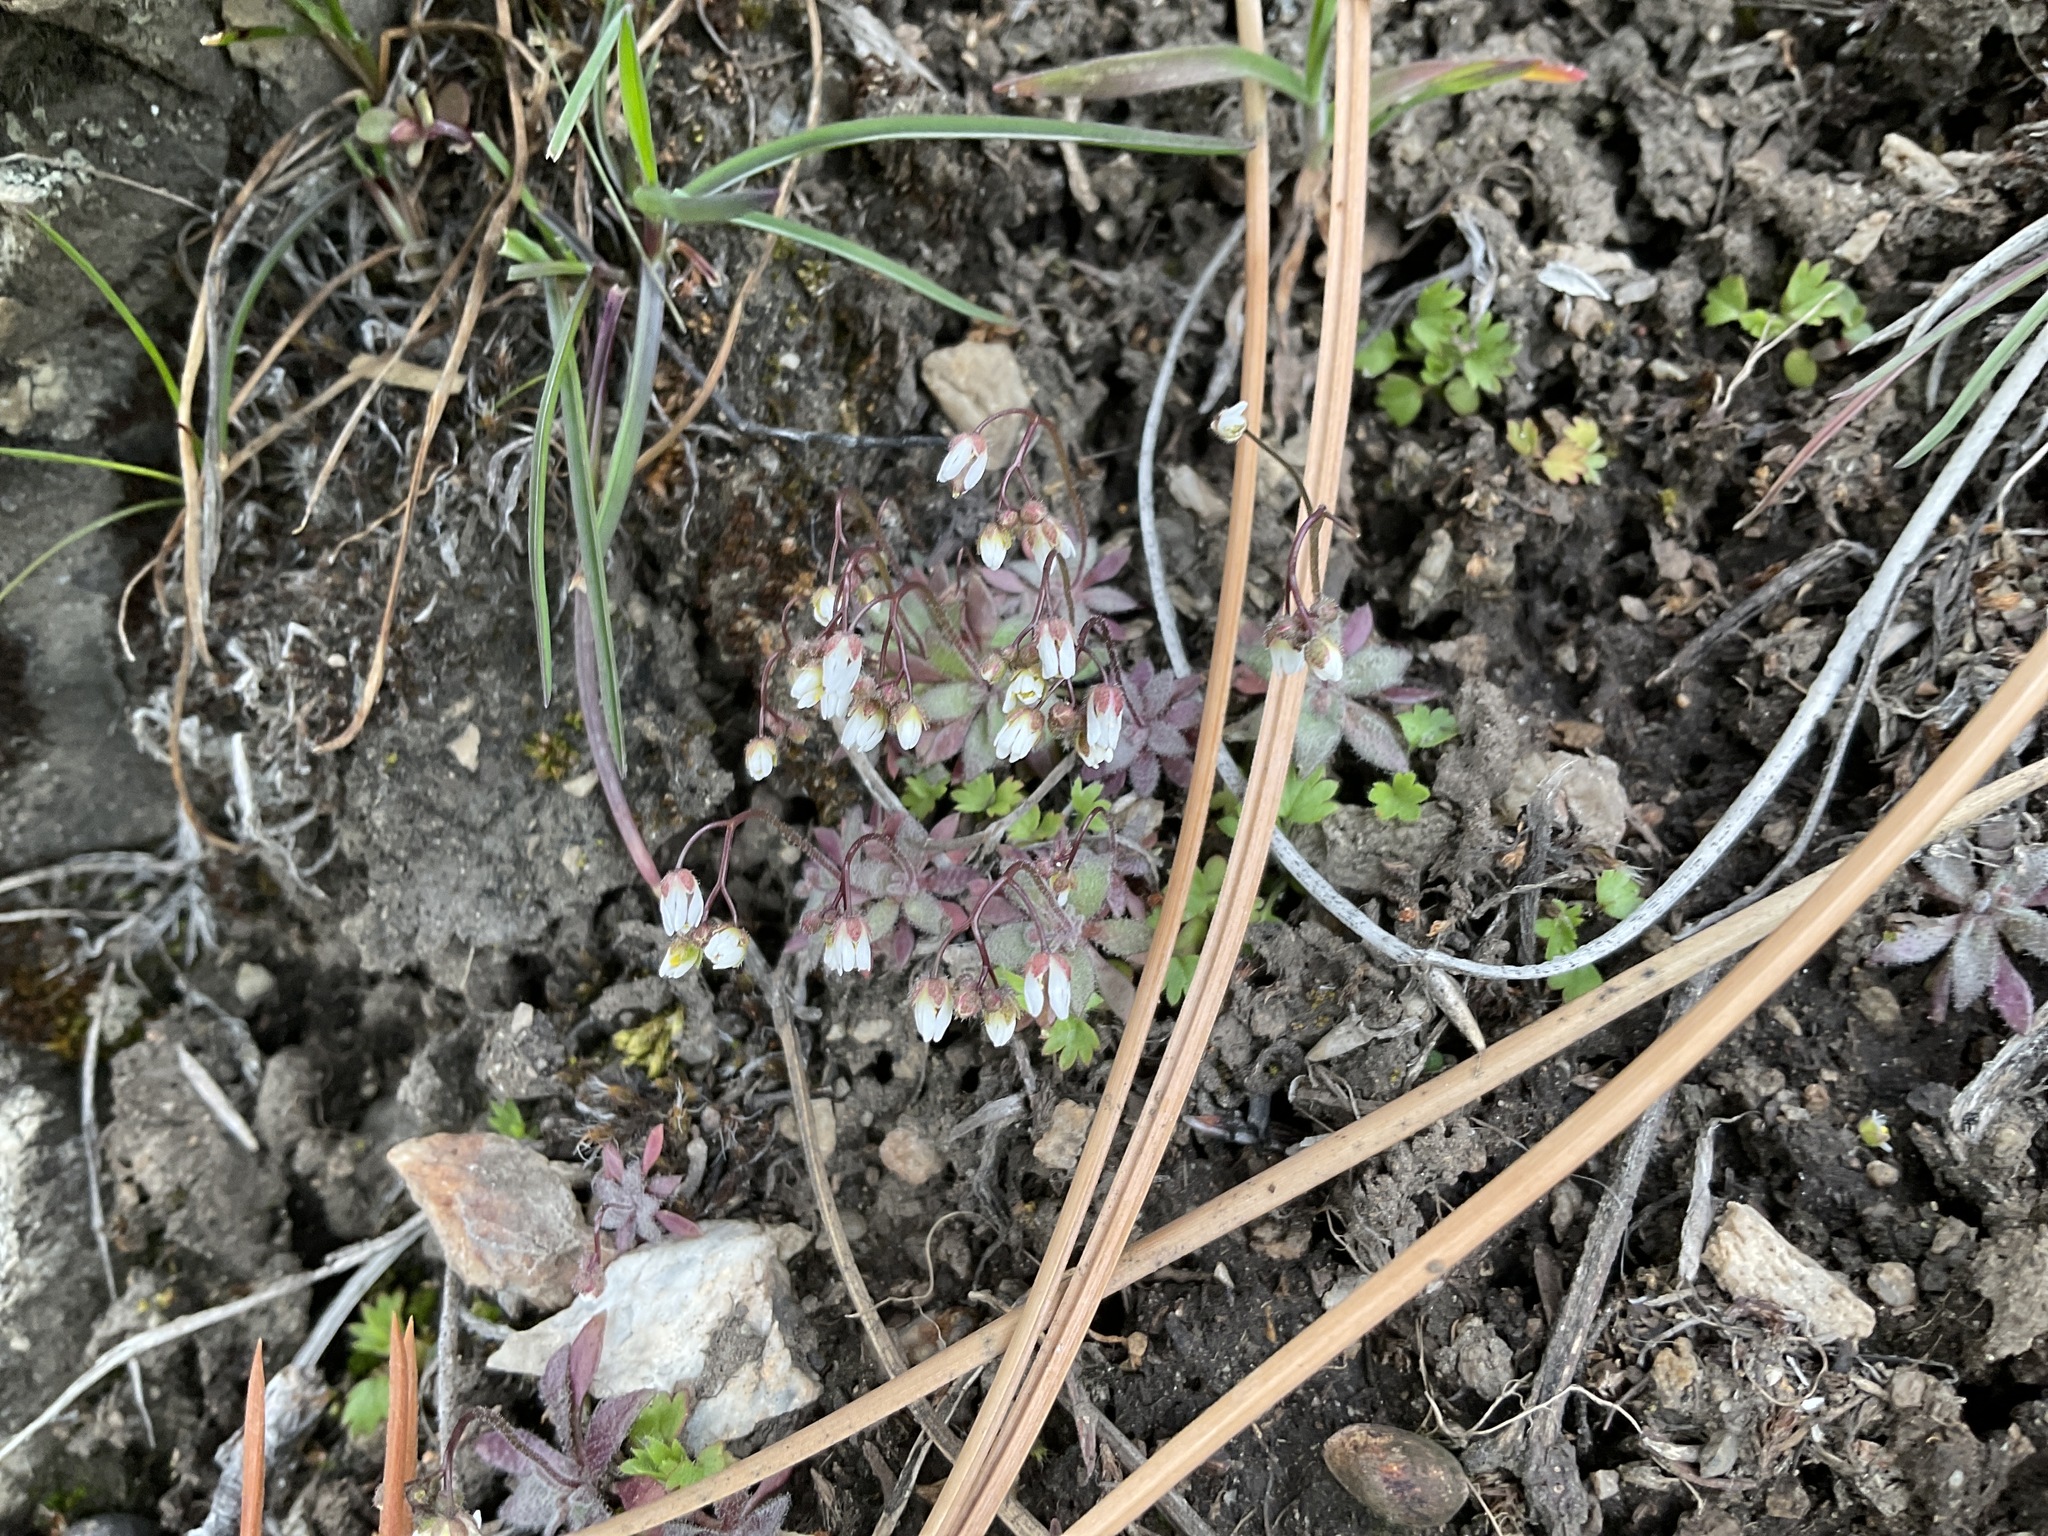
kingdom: Plantae
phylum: Tracheophyta
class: Magnoliopsida
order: Brassicales
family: Brassicaceae
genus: Draba
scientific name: Draba verna
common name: Spring draba
